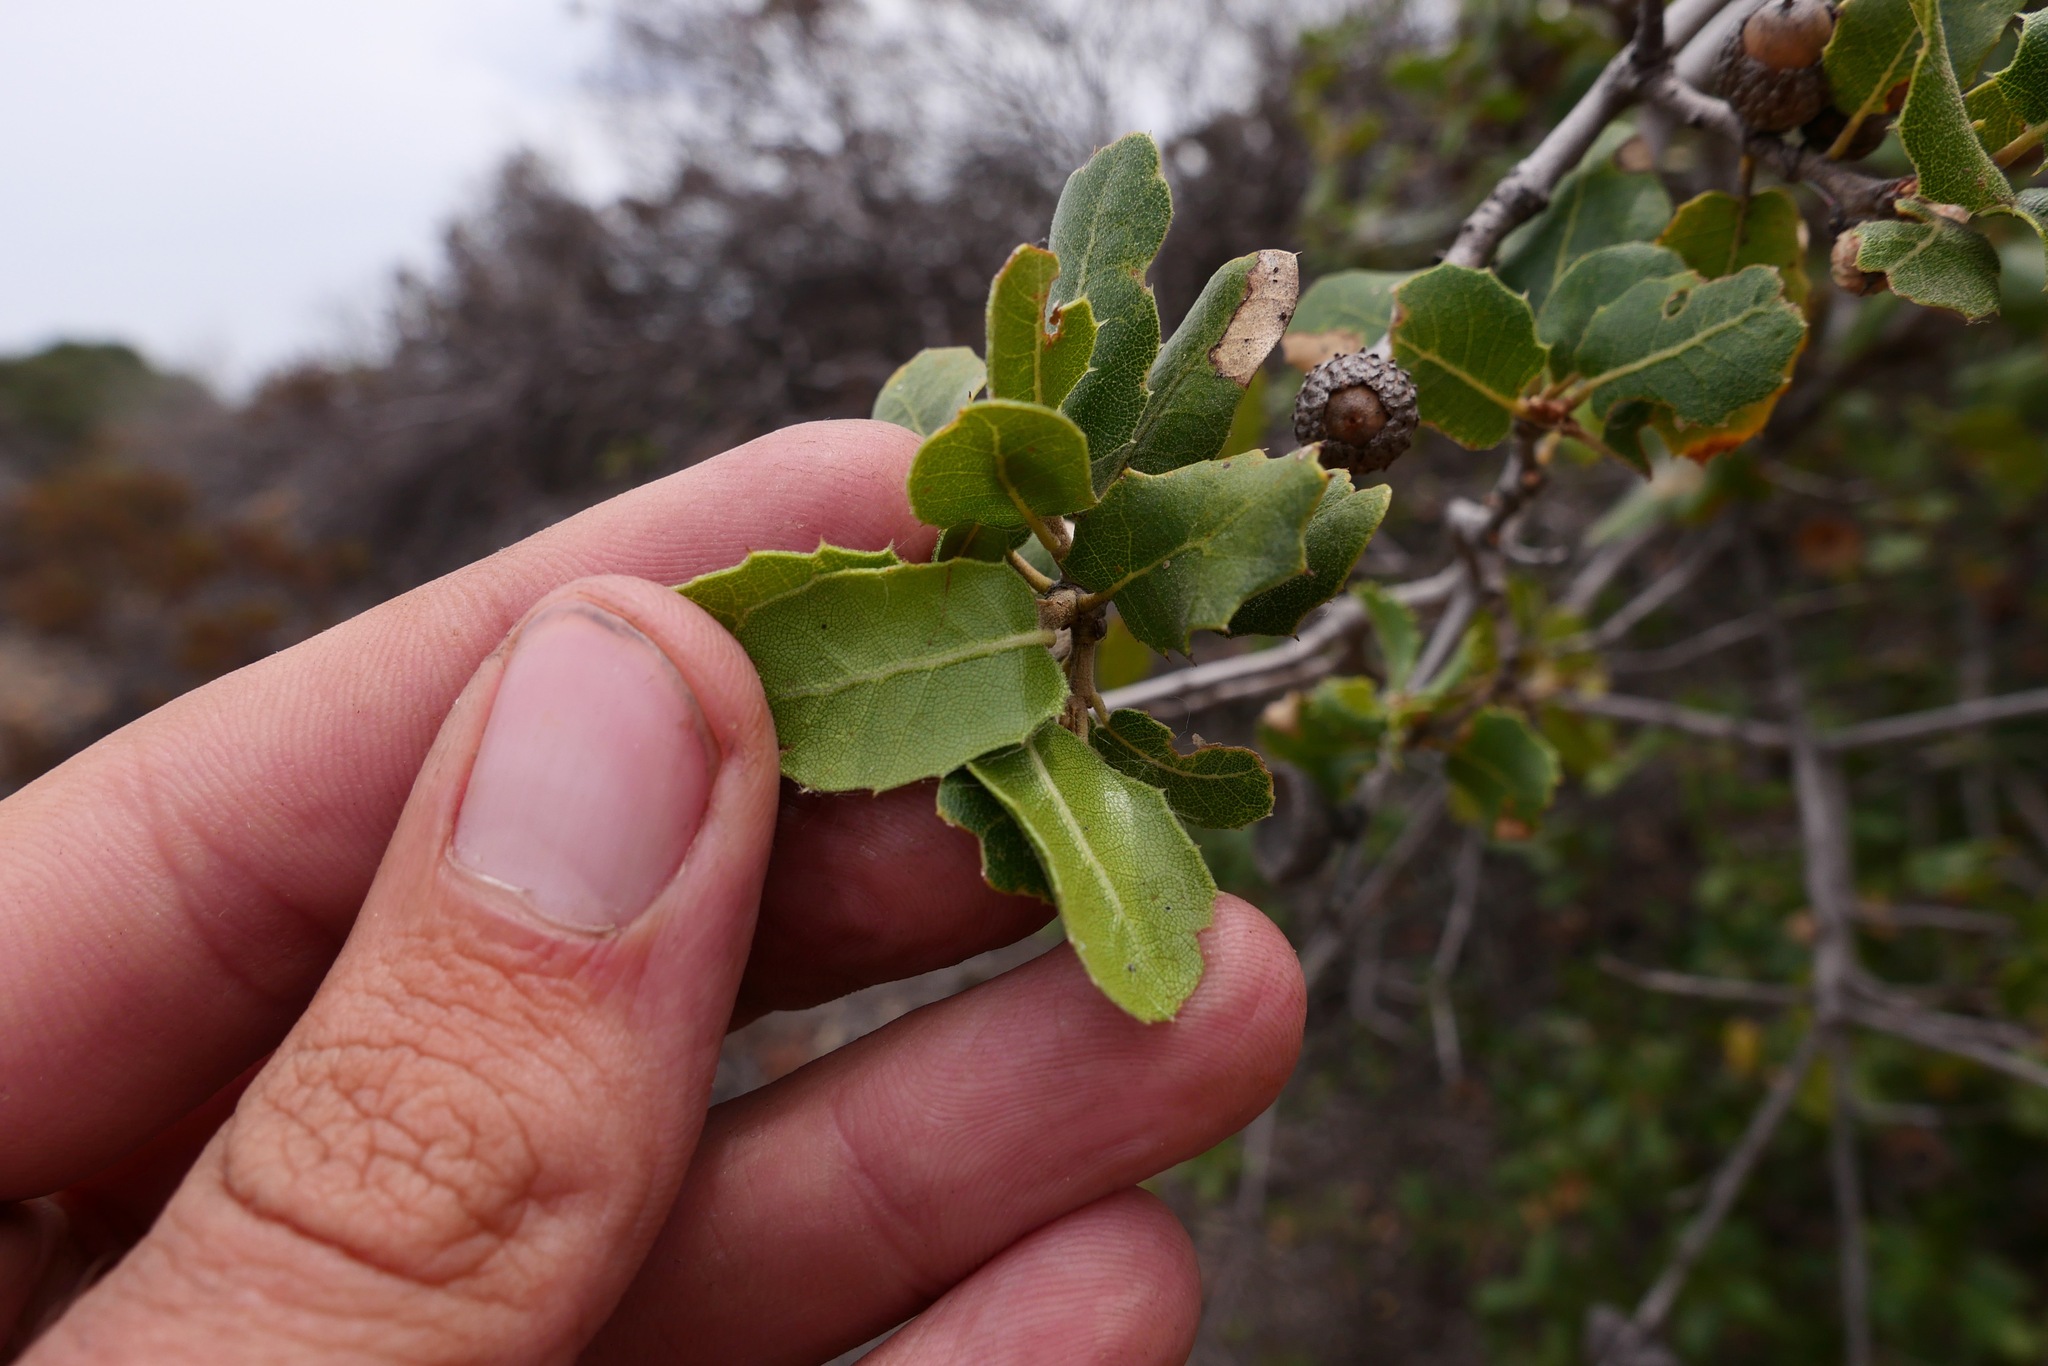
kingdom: Plantae
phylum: Tracheophyta
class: Magnoliopsida
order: Fagales
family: Fagaceae
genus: Quercus
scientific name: Quercus wislizeni
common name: Interior live oak
